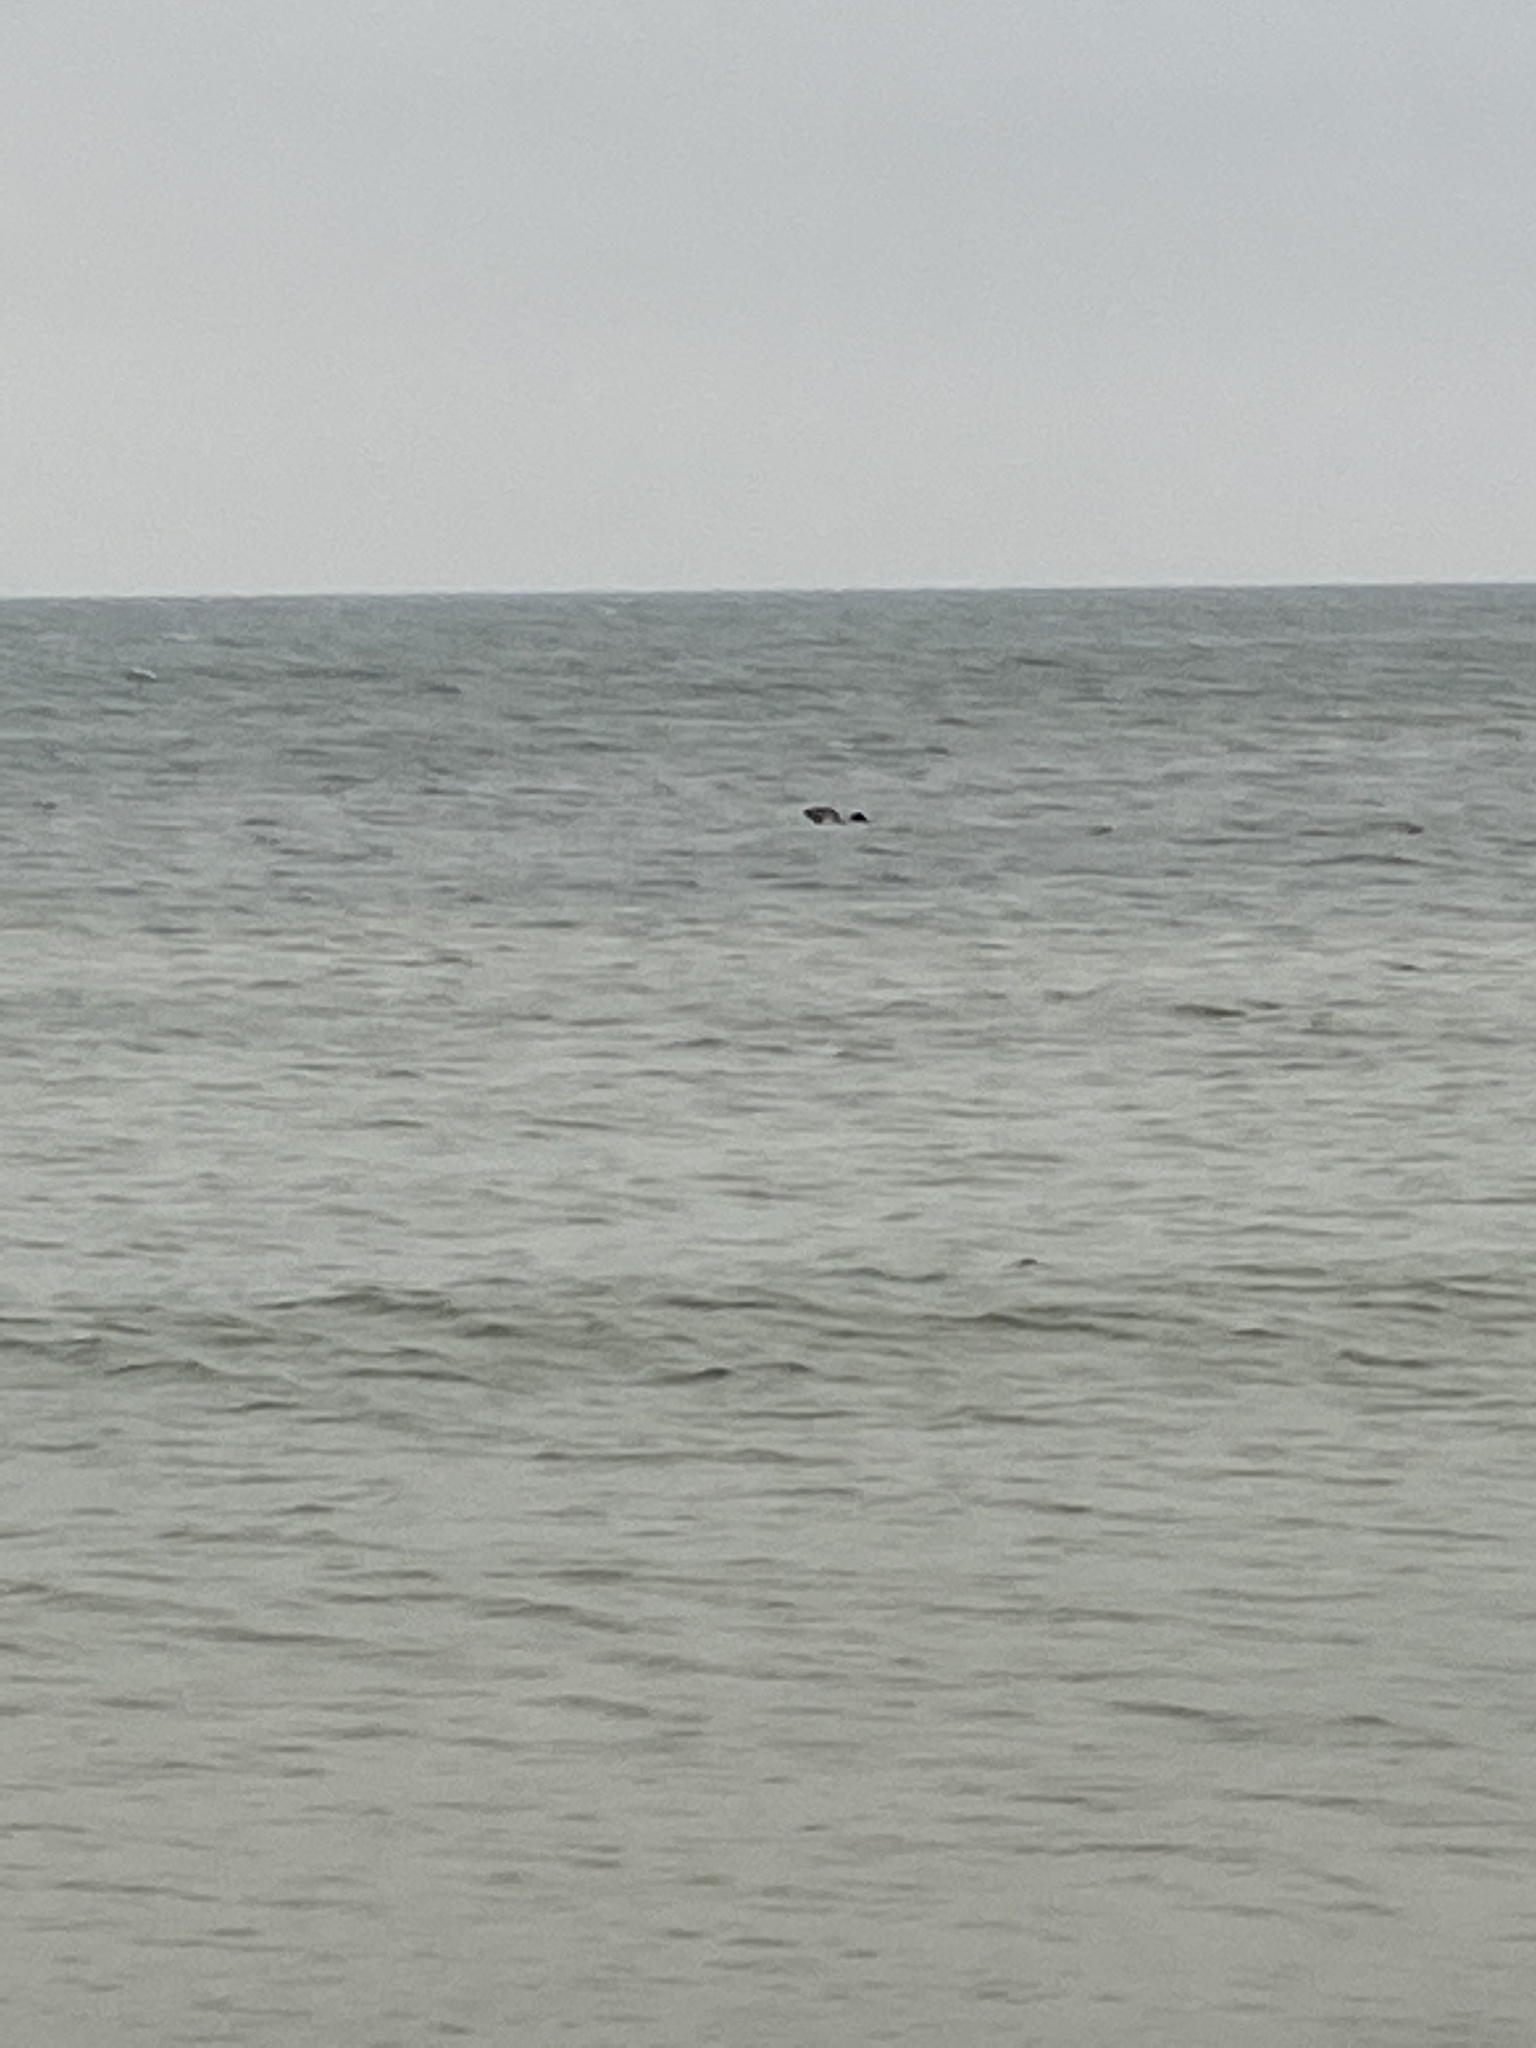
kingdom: Animalia
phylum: Chordata
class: Mammalia
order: Carnivora
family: Phocidae
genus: Halichoerus
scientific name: Halichoerus grypus
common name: Grey seal
